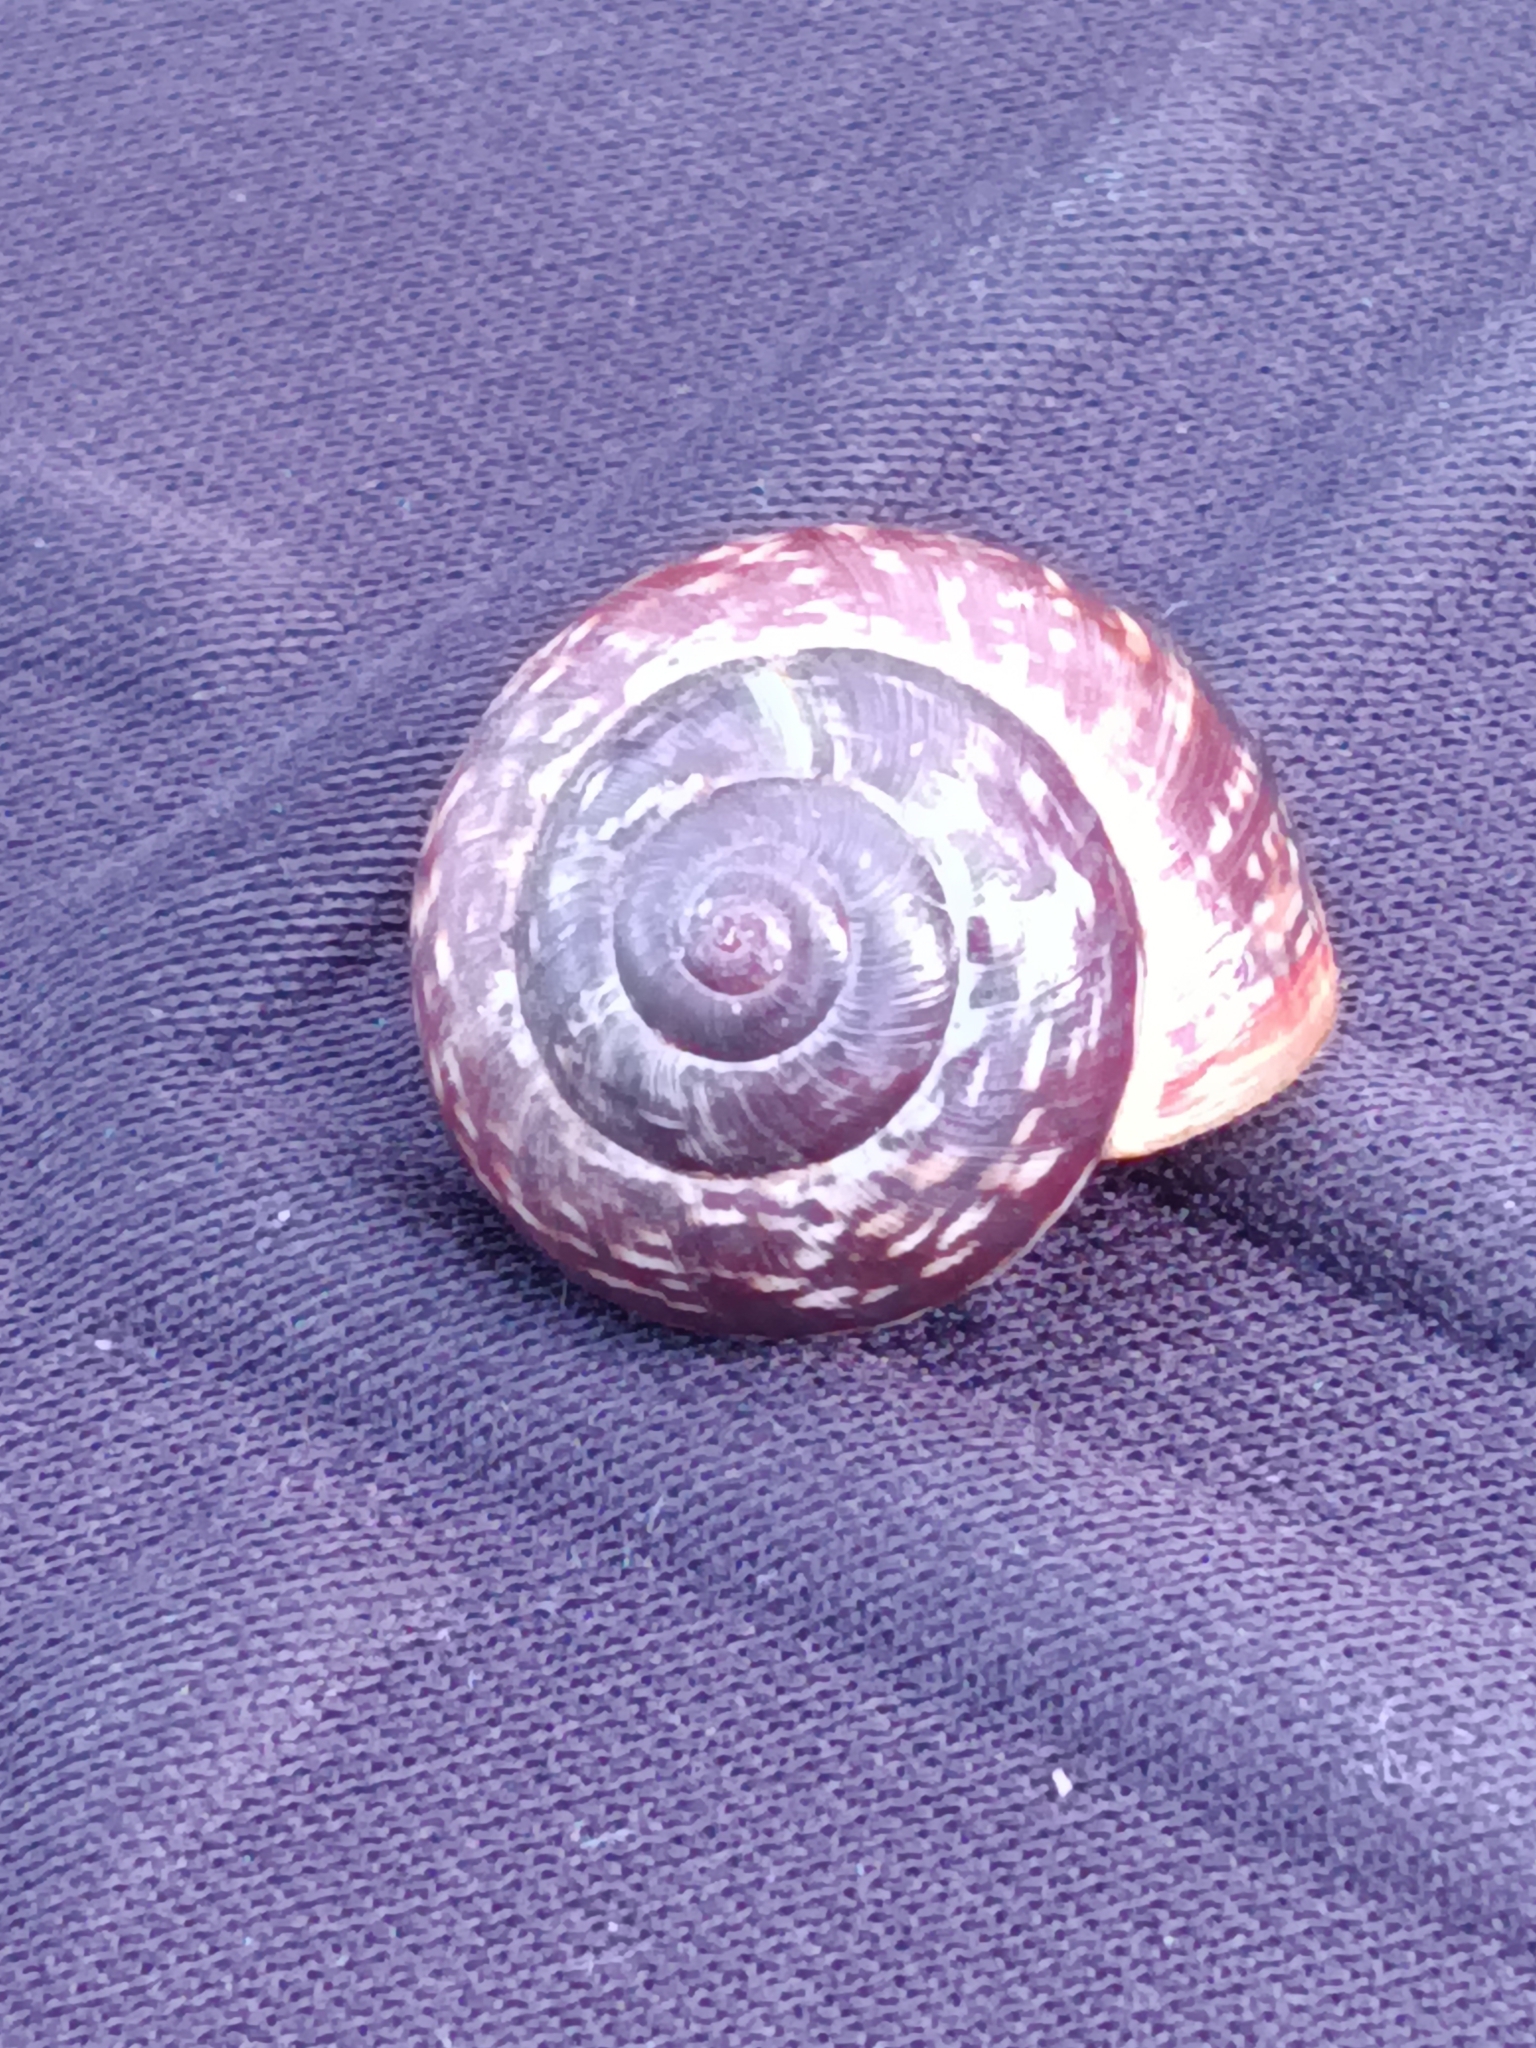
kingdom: Animalia
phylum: Mollusca
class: Gastropoda
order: Stylommatophora
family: Helicidae
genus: Arianta
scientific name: Arianta arbustorum
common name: Copse snail
